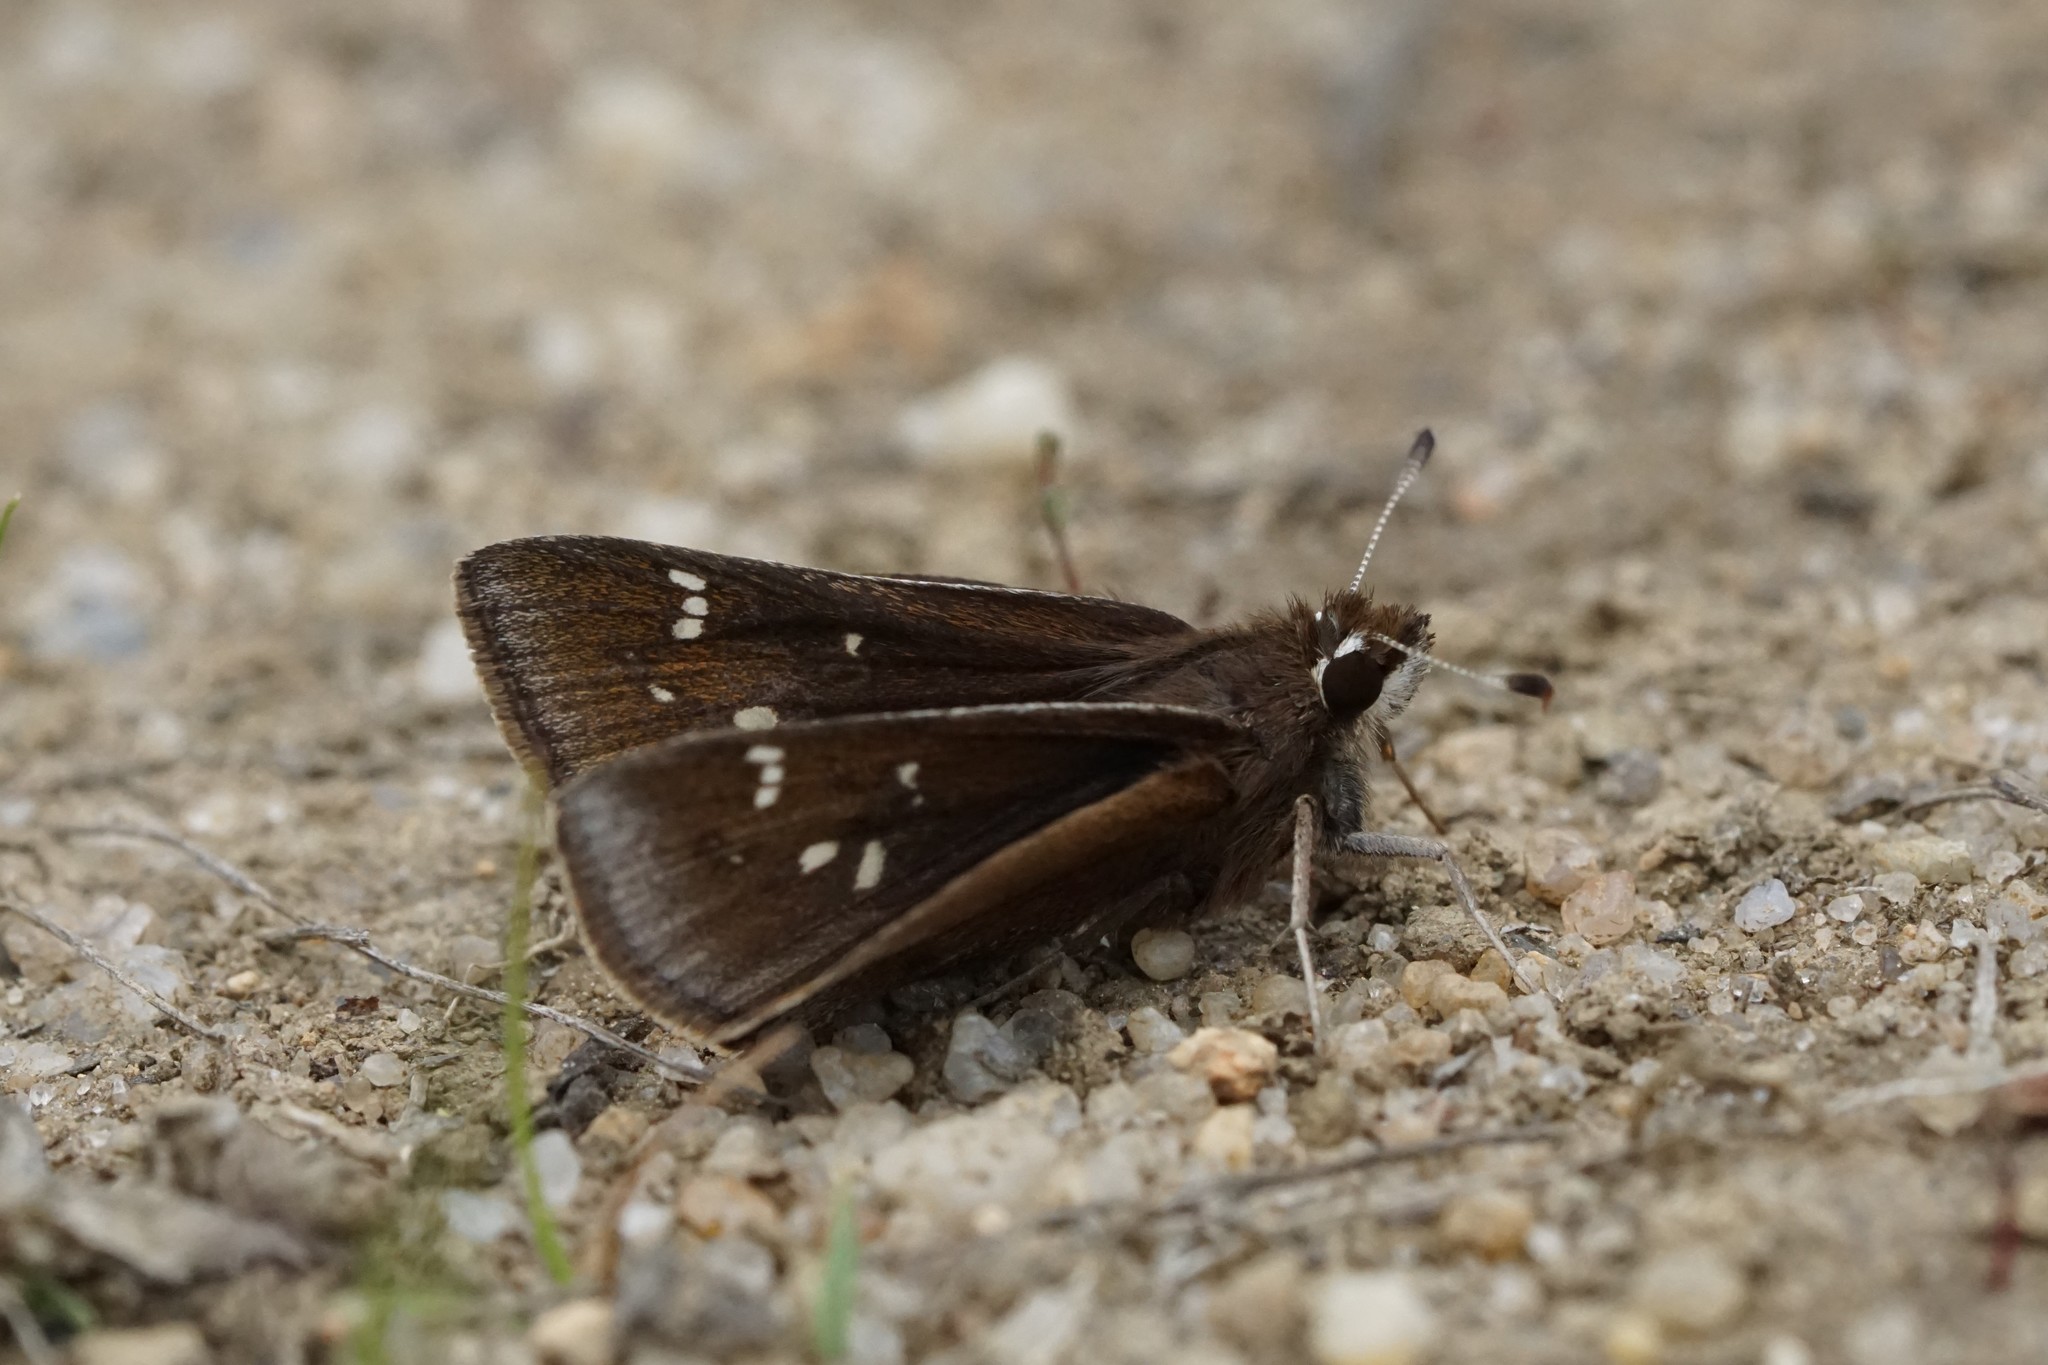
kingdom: Animalia
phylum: Arthropoda
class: Insecta
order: Lepidoptera
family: Hesperiidae
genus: Atrytonopsis
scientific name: Atrytonopsis hianna
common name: Dusted skipper
